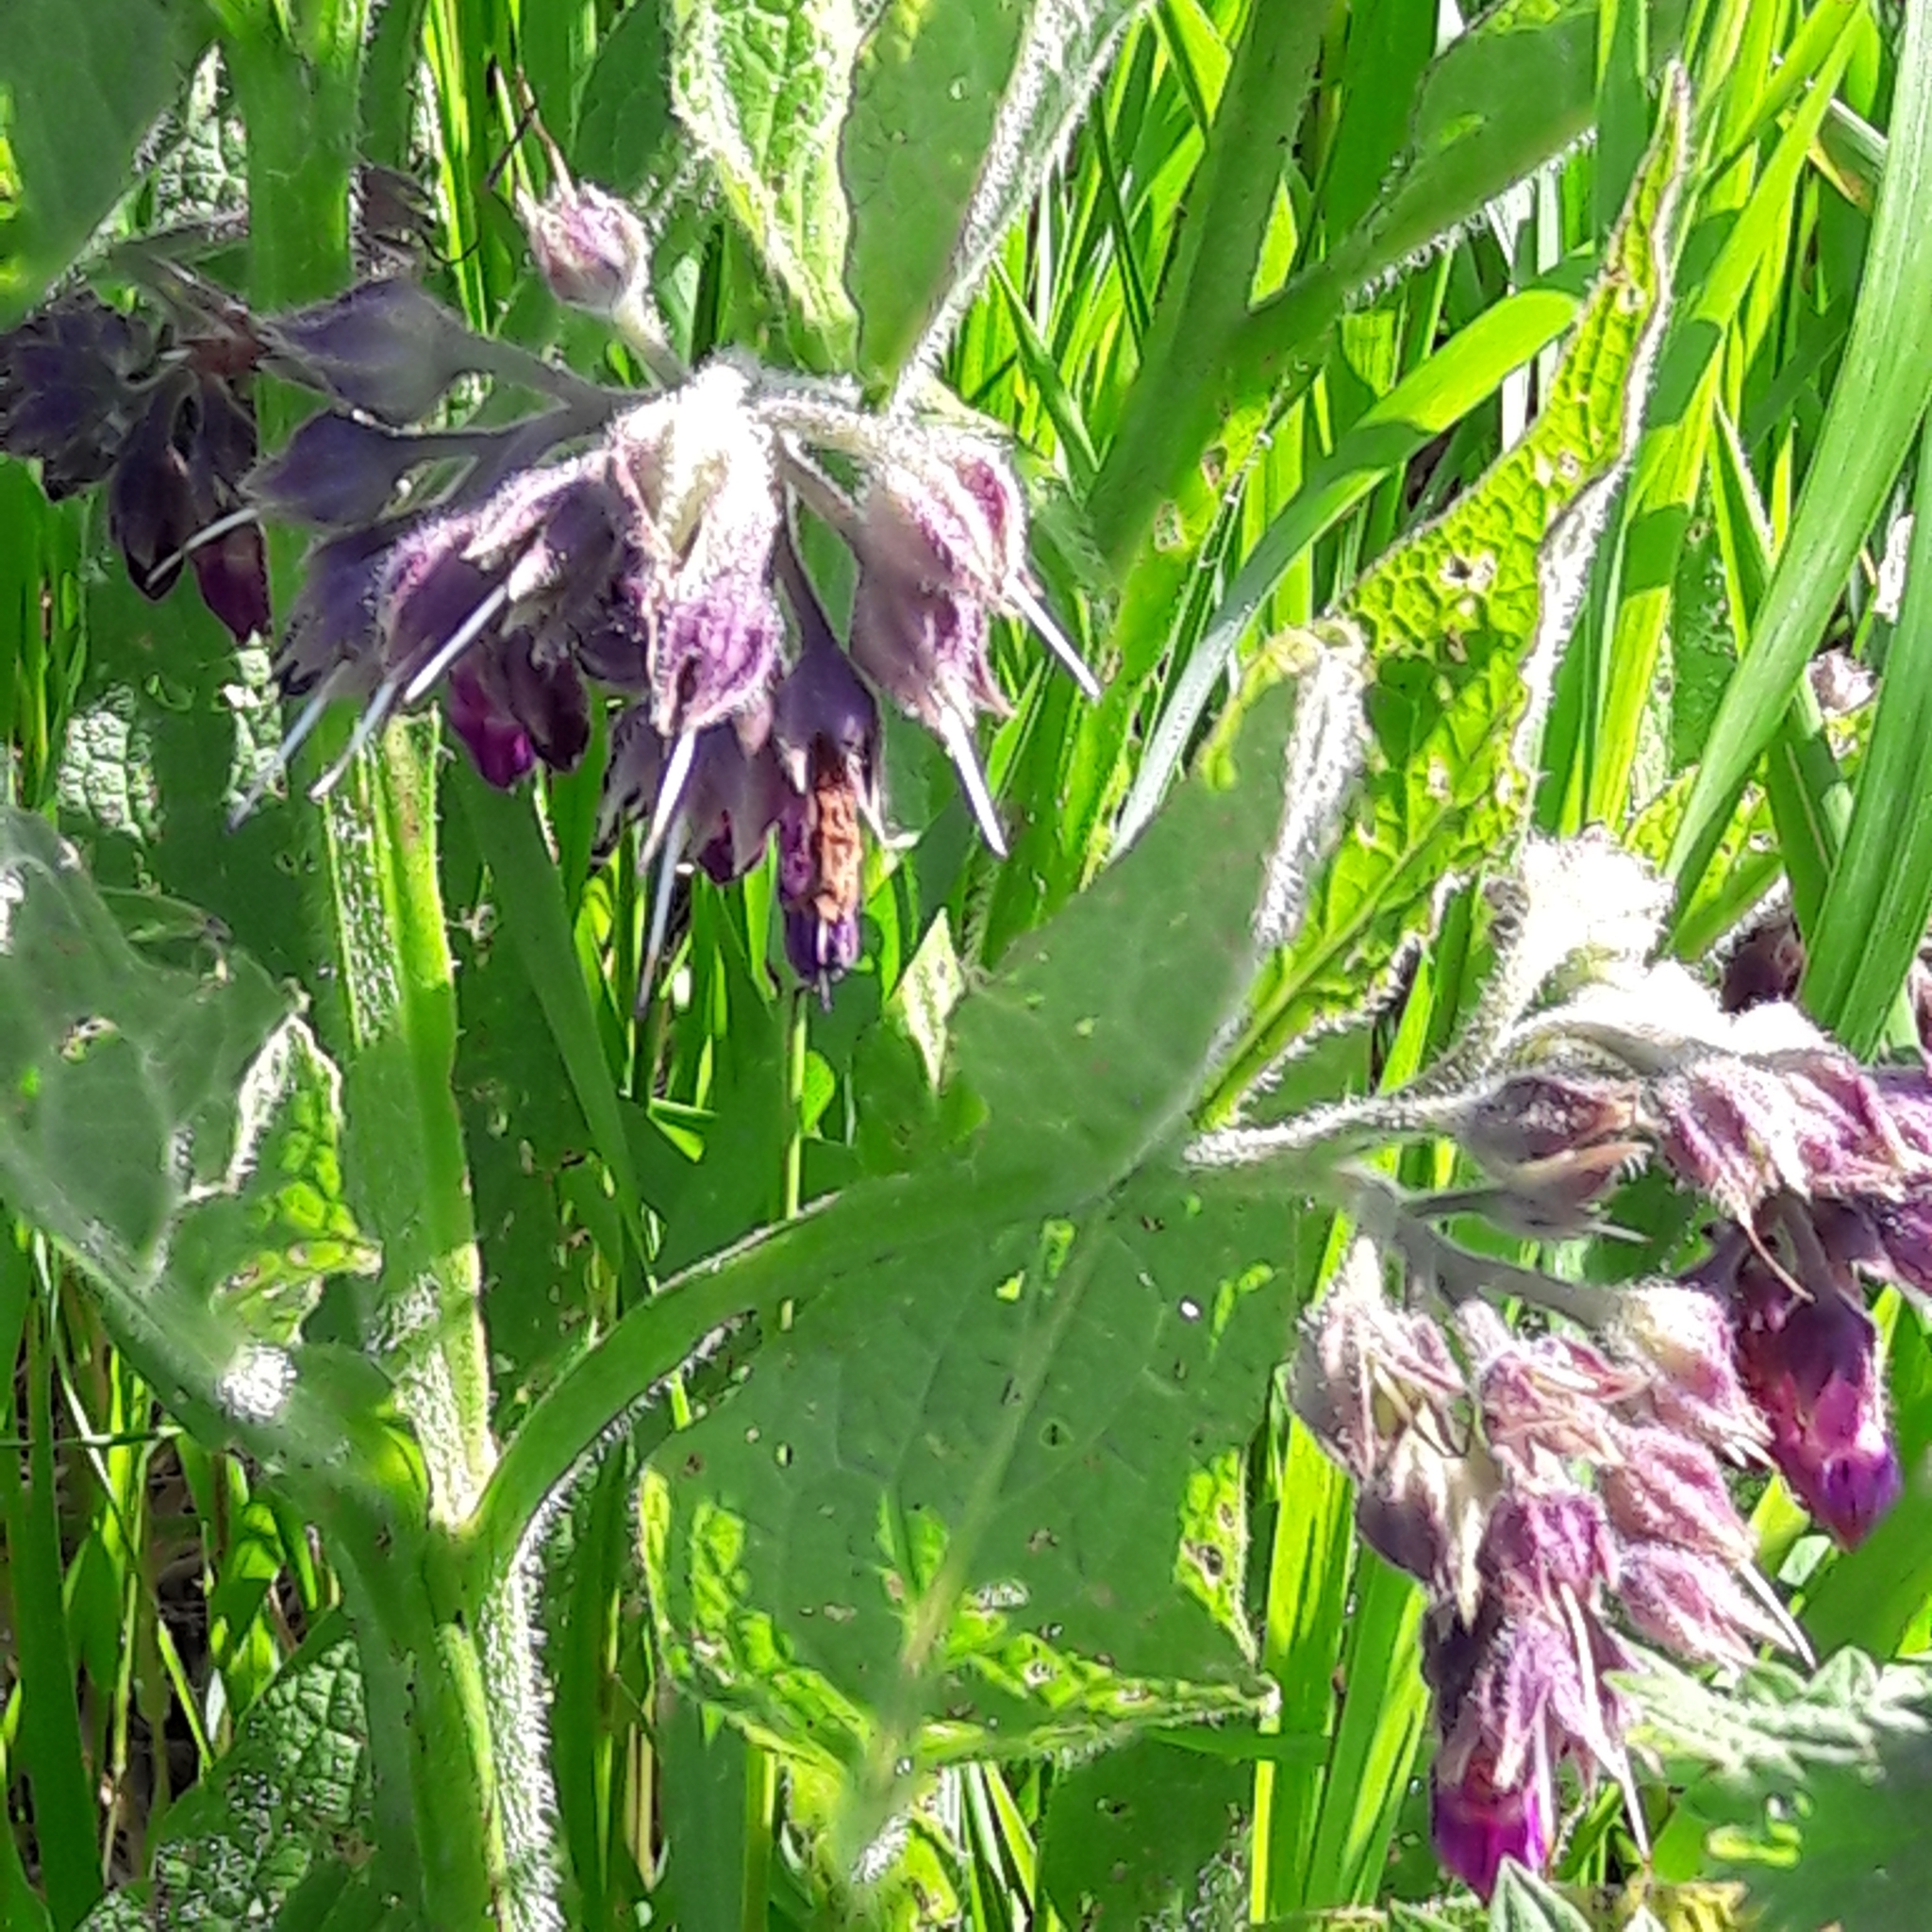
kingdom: Plantae
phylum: Tracheophyta
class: Magnoliopsida
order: Boraginales
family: Boraginaceae
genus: Symphytum
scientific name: Symphytum officinale
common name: Common comfrey
